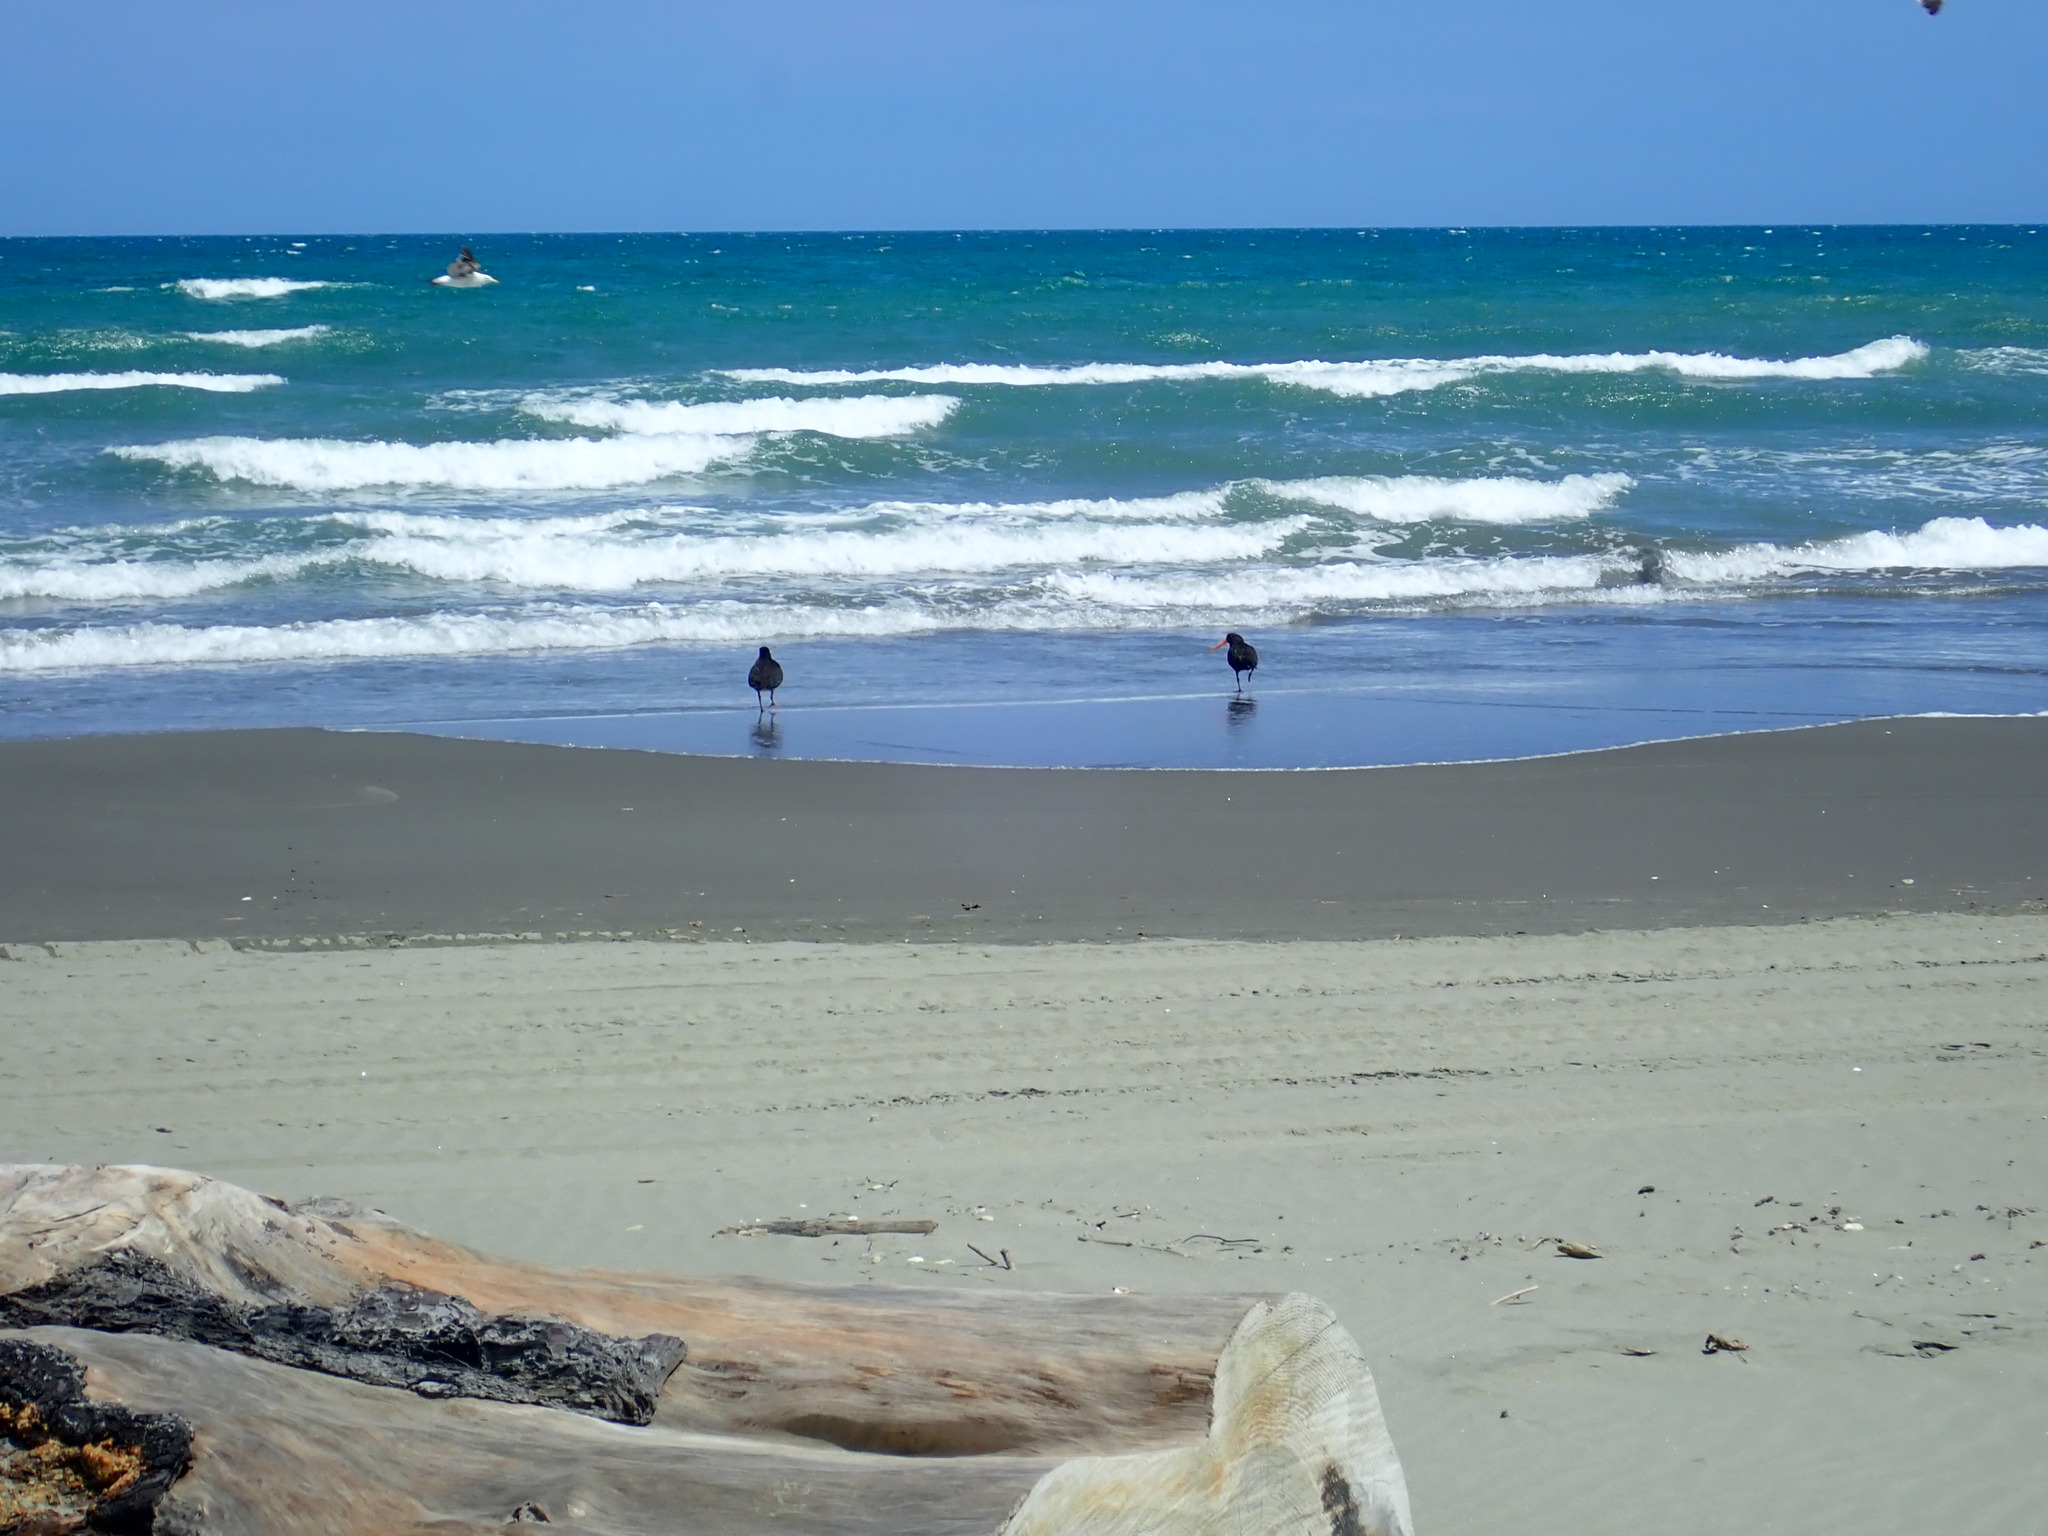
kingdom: Animalia
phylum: Chordata
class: Aves
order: Charadriiformes
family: Haematopodidae
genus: Haematopus
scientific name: Haematopus unicolor
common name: Variable oystercatcher
